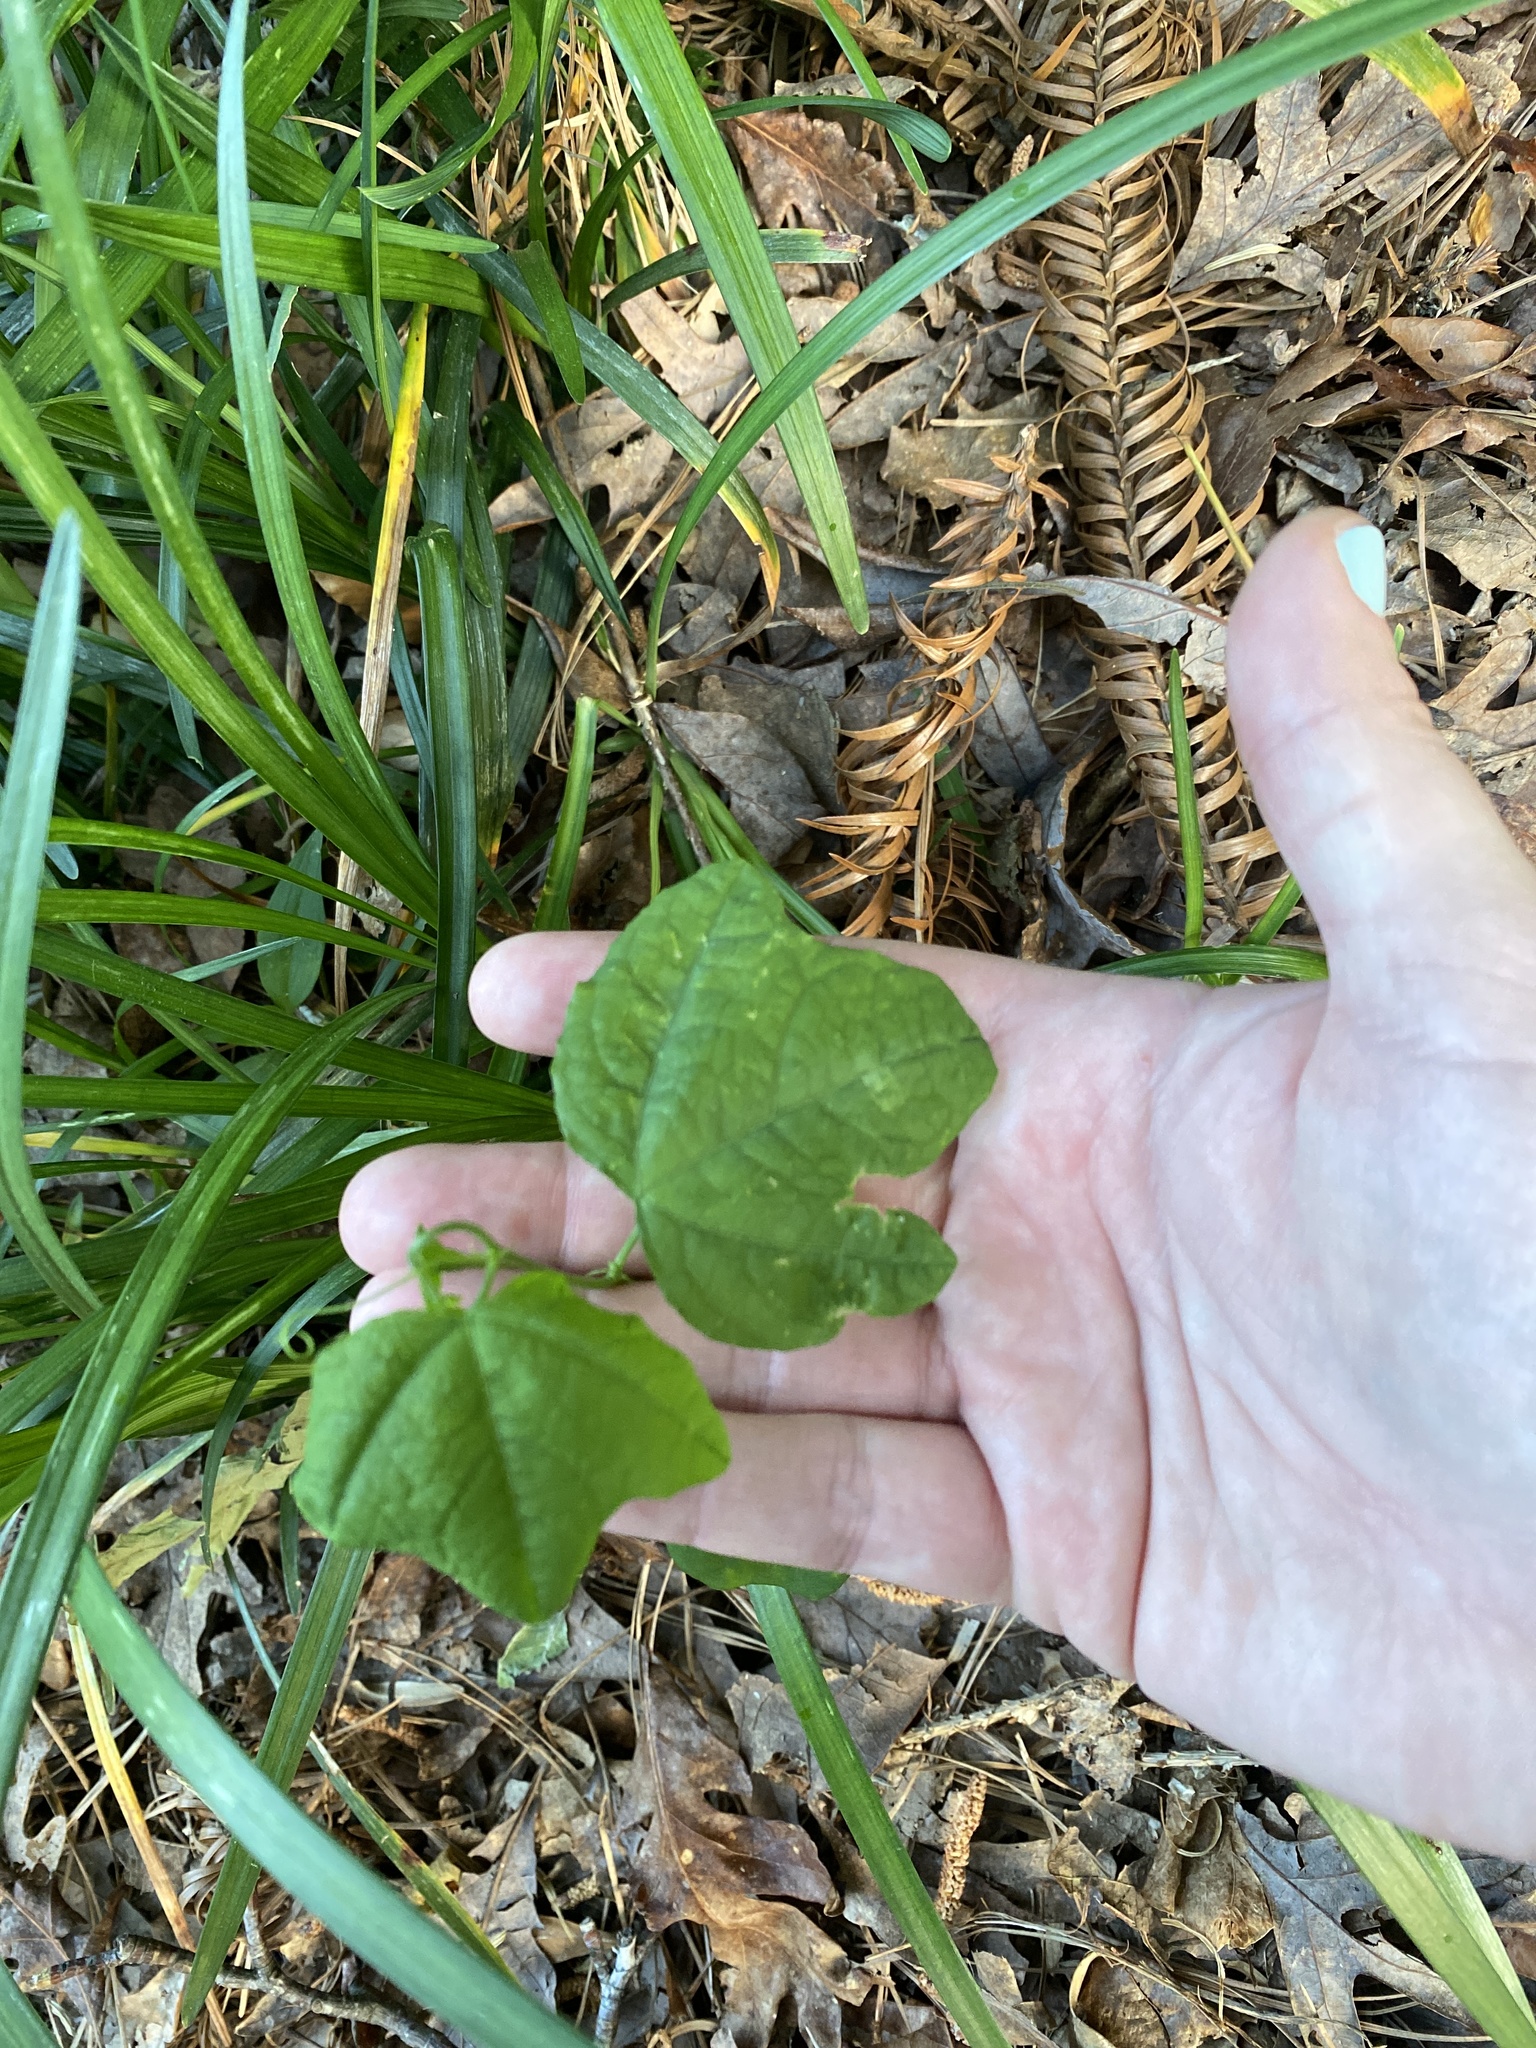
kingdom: Plantae
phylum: Tracheophyta
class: Magnoliopsida
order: Malpighiales
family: Passifloraceae
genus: Passiflora
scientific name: Passiflora lutea
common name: Yellow passionflower
